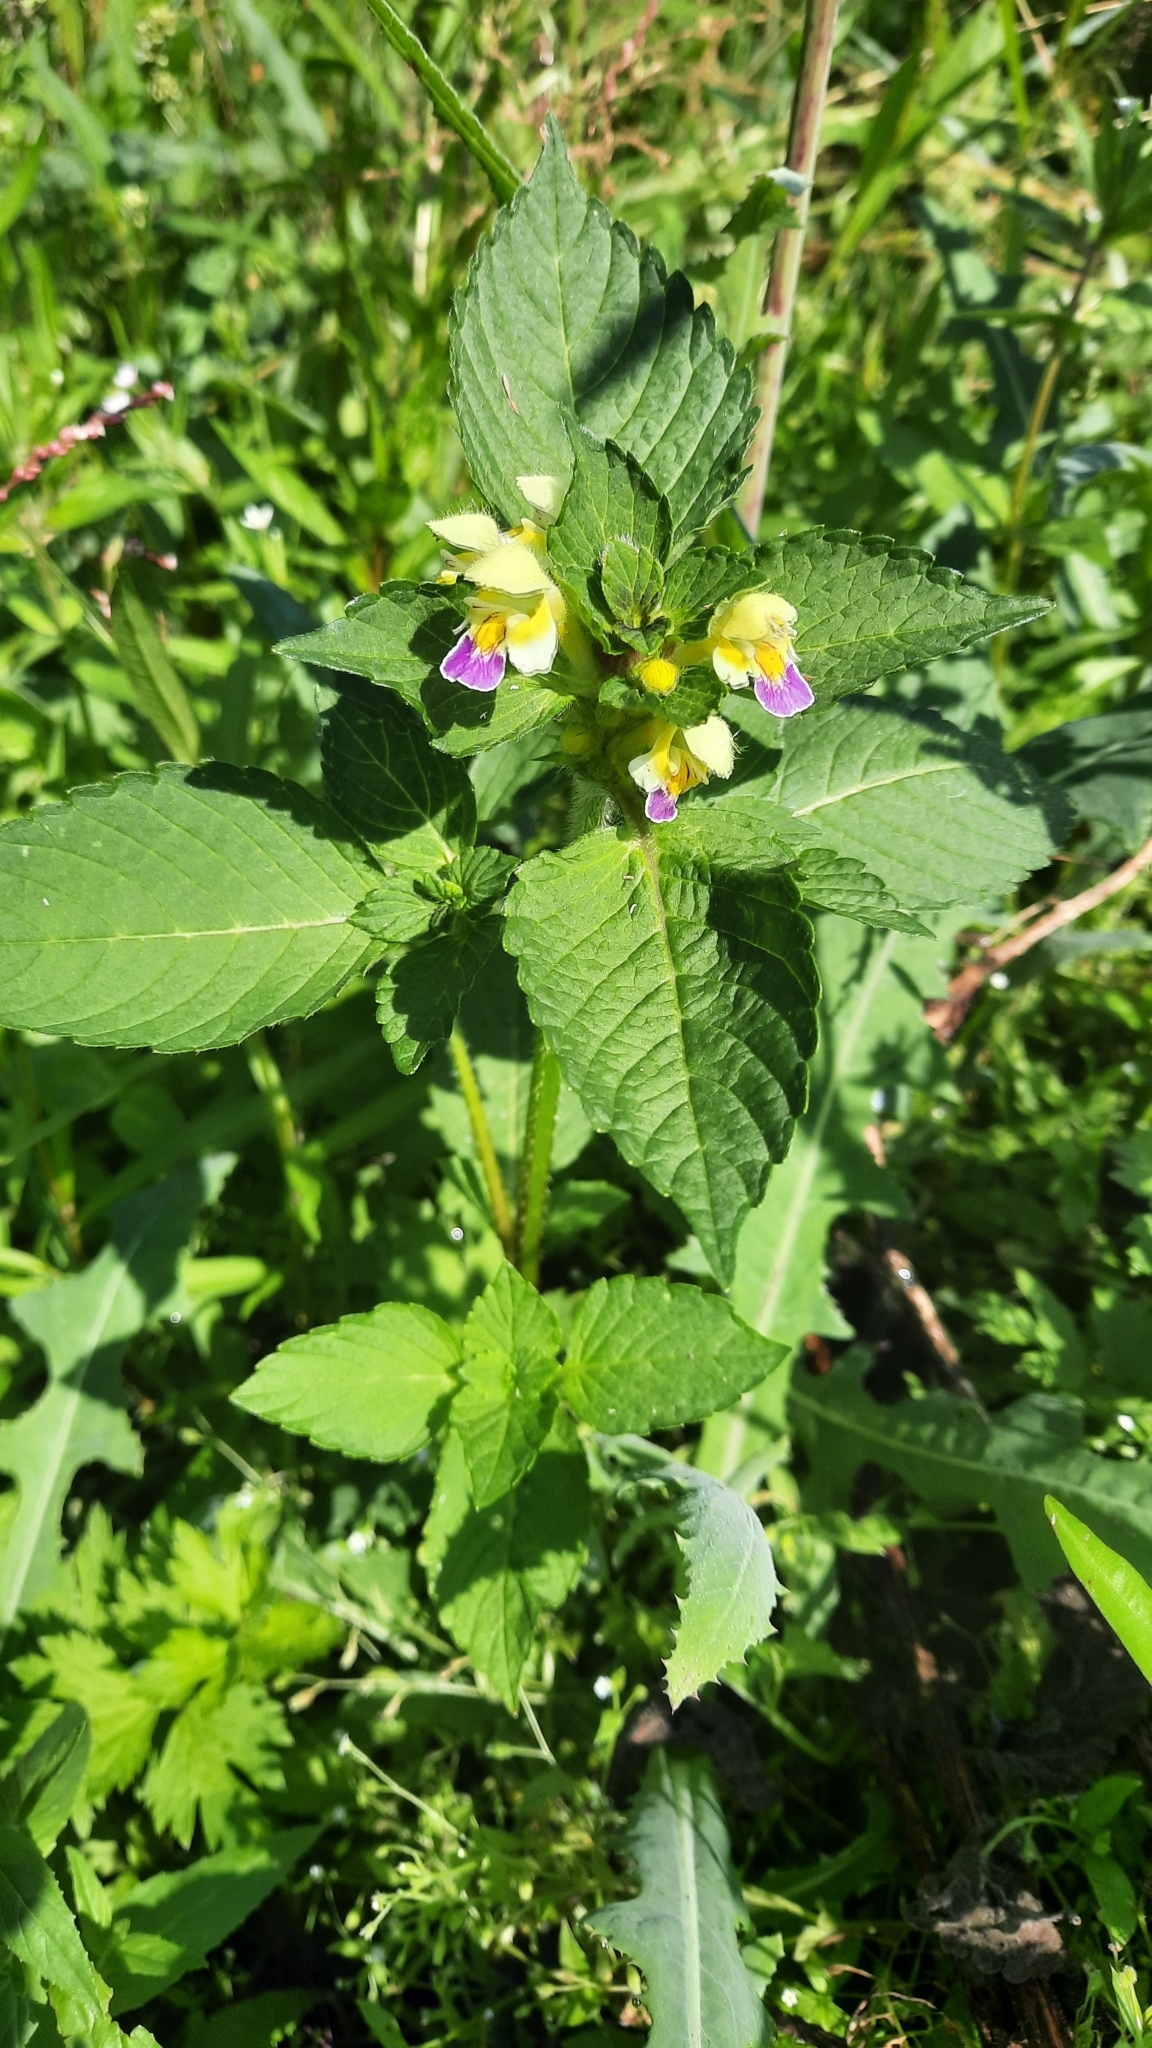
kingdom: Plantae
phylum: Tracheophyta
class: Magnoliopsida
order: Lamiales
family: Lamiaceae
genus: Galeopsis
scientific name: Galeopsis speciosa
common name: Large-flowered hemp-nettle
